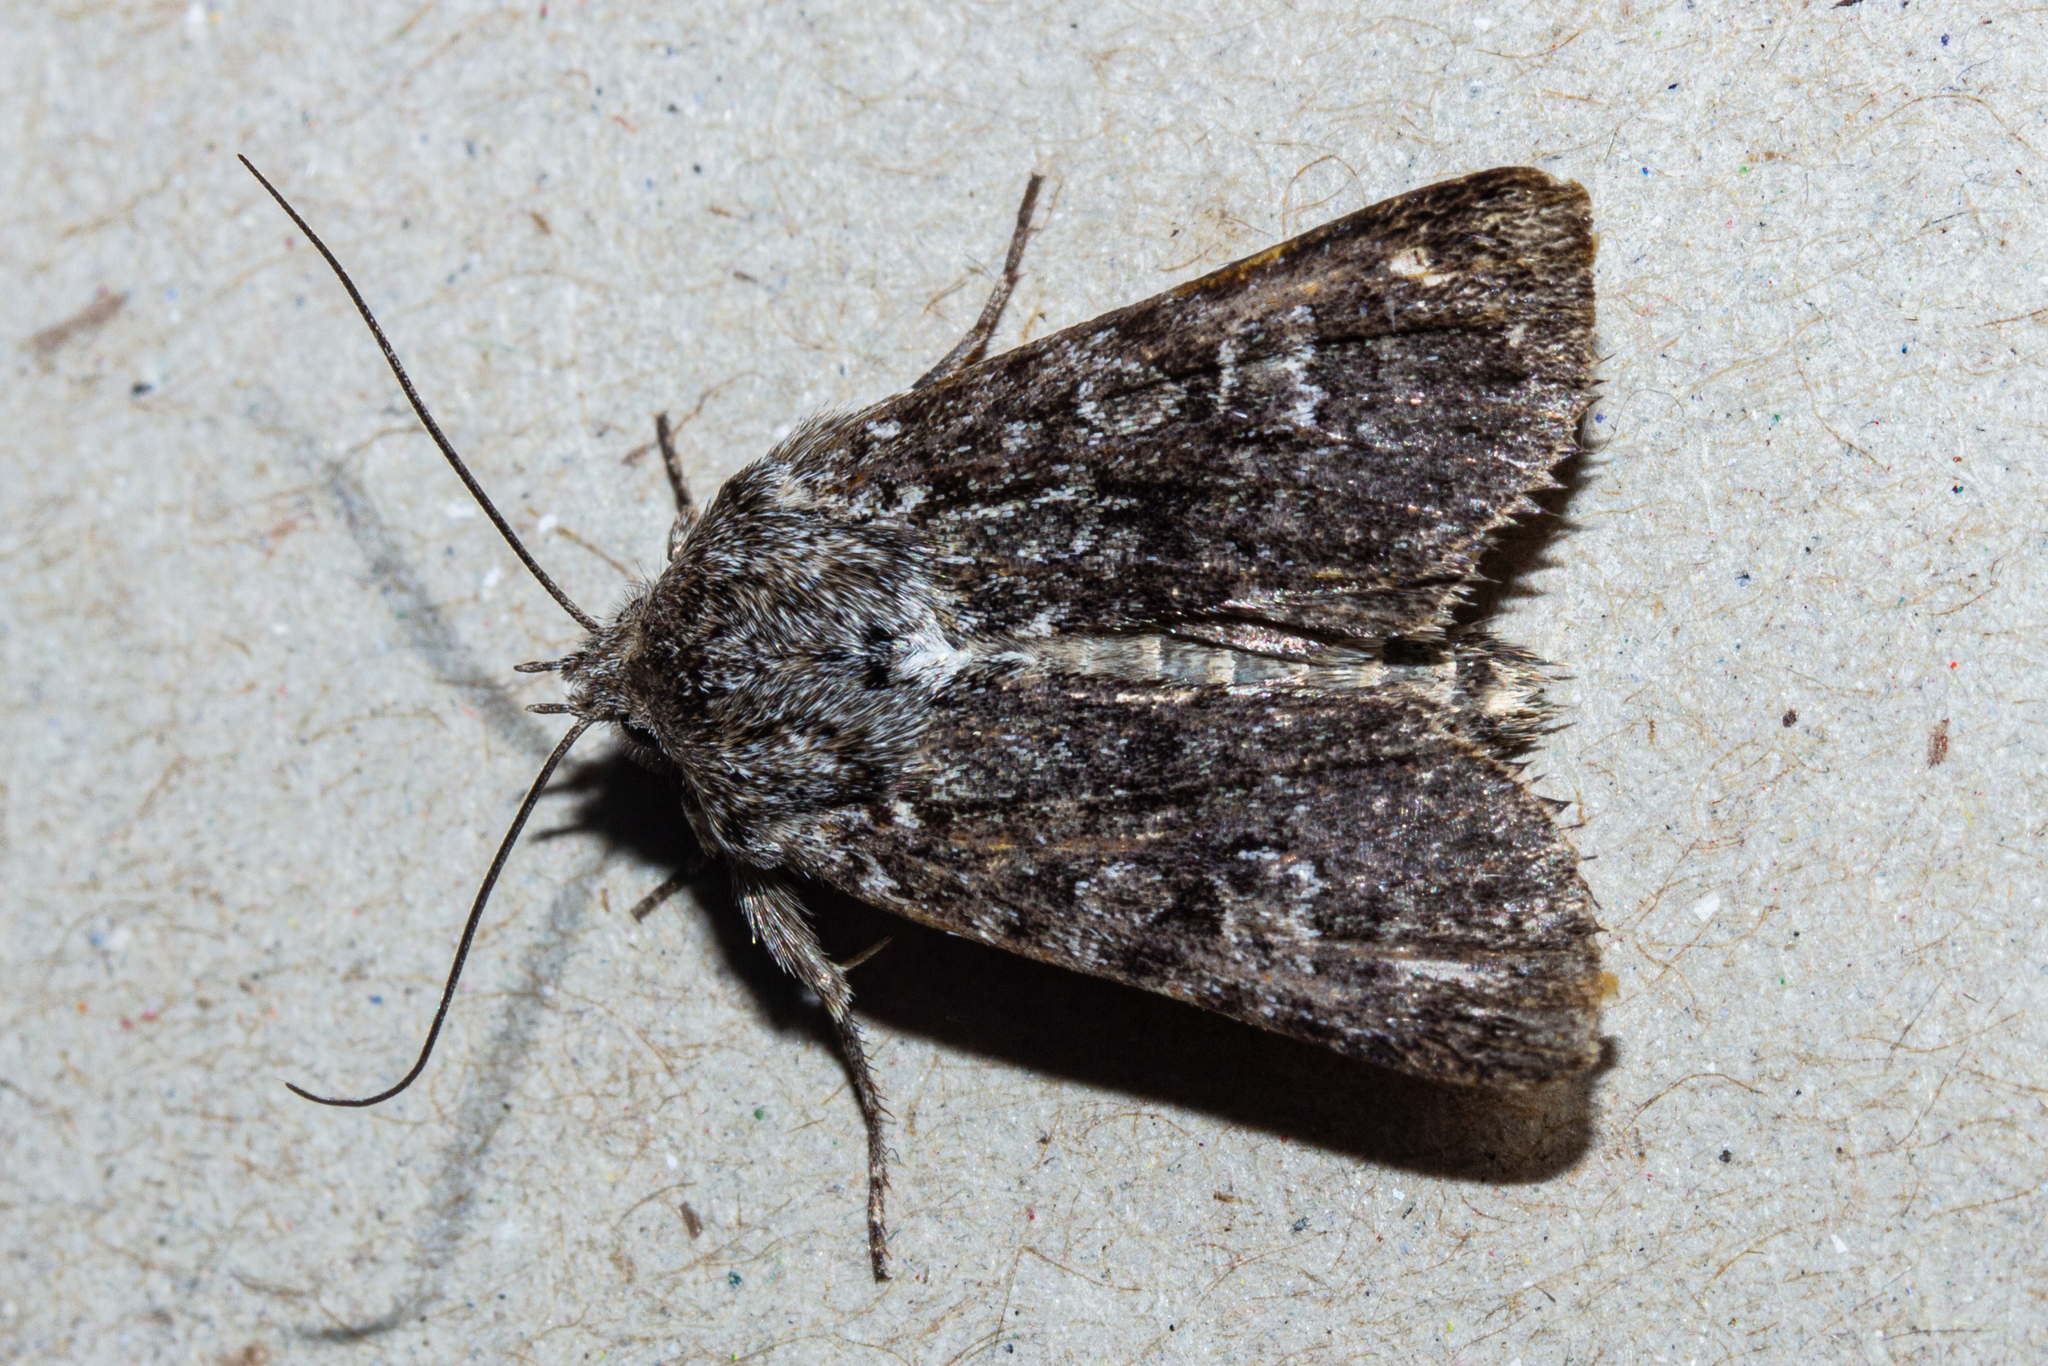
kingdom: Animalia
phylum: Arthropoda
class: Insecta
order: Lepidoptera
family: Noctuidae
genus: Physetica
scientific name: Physetica cucullina
